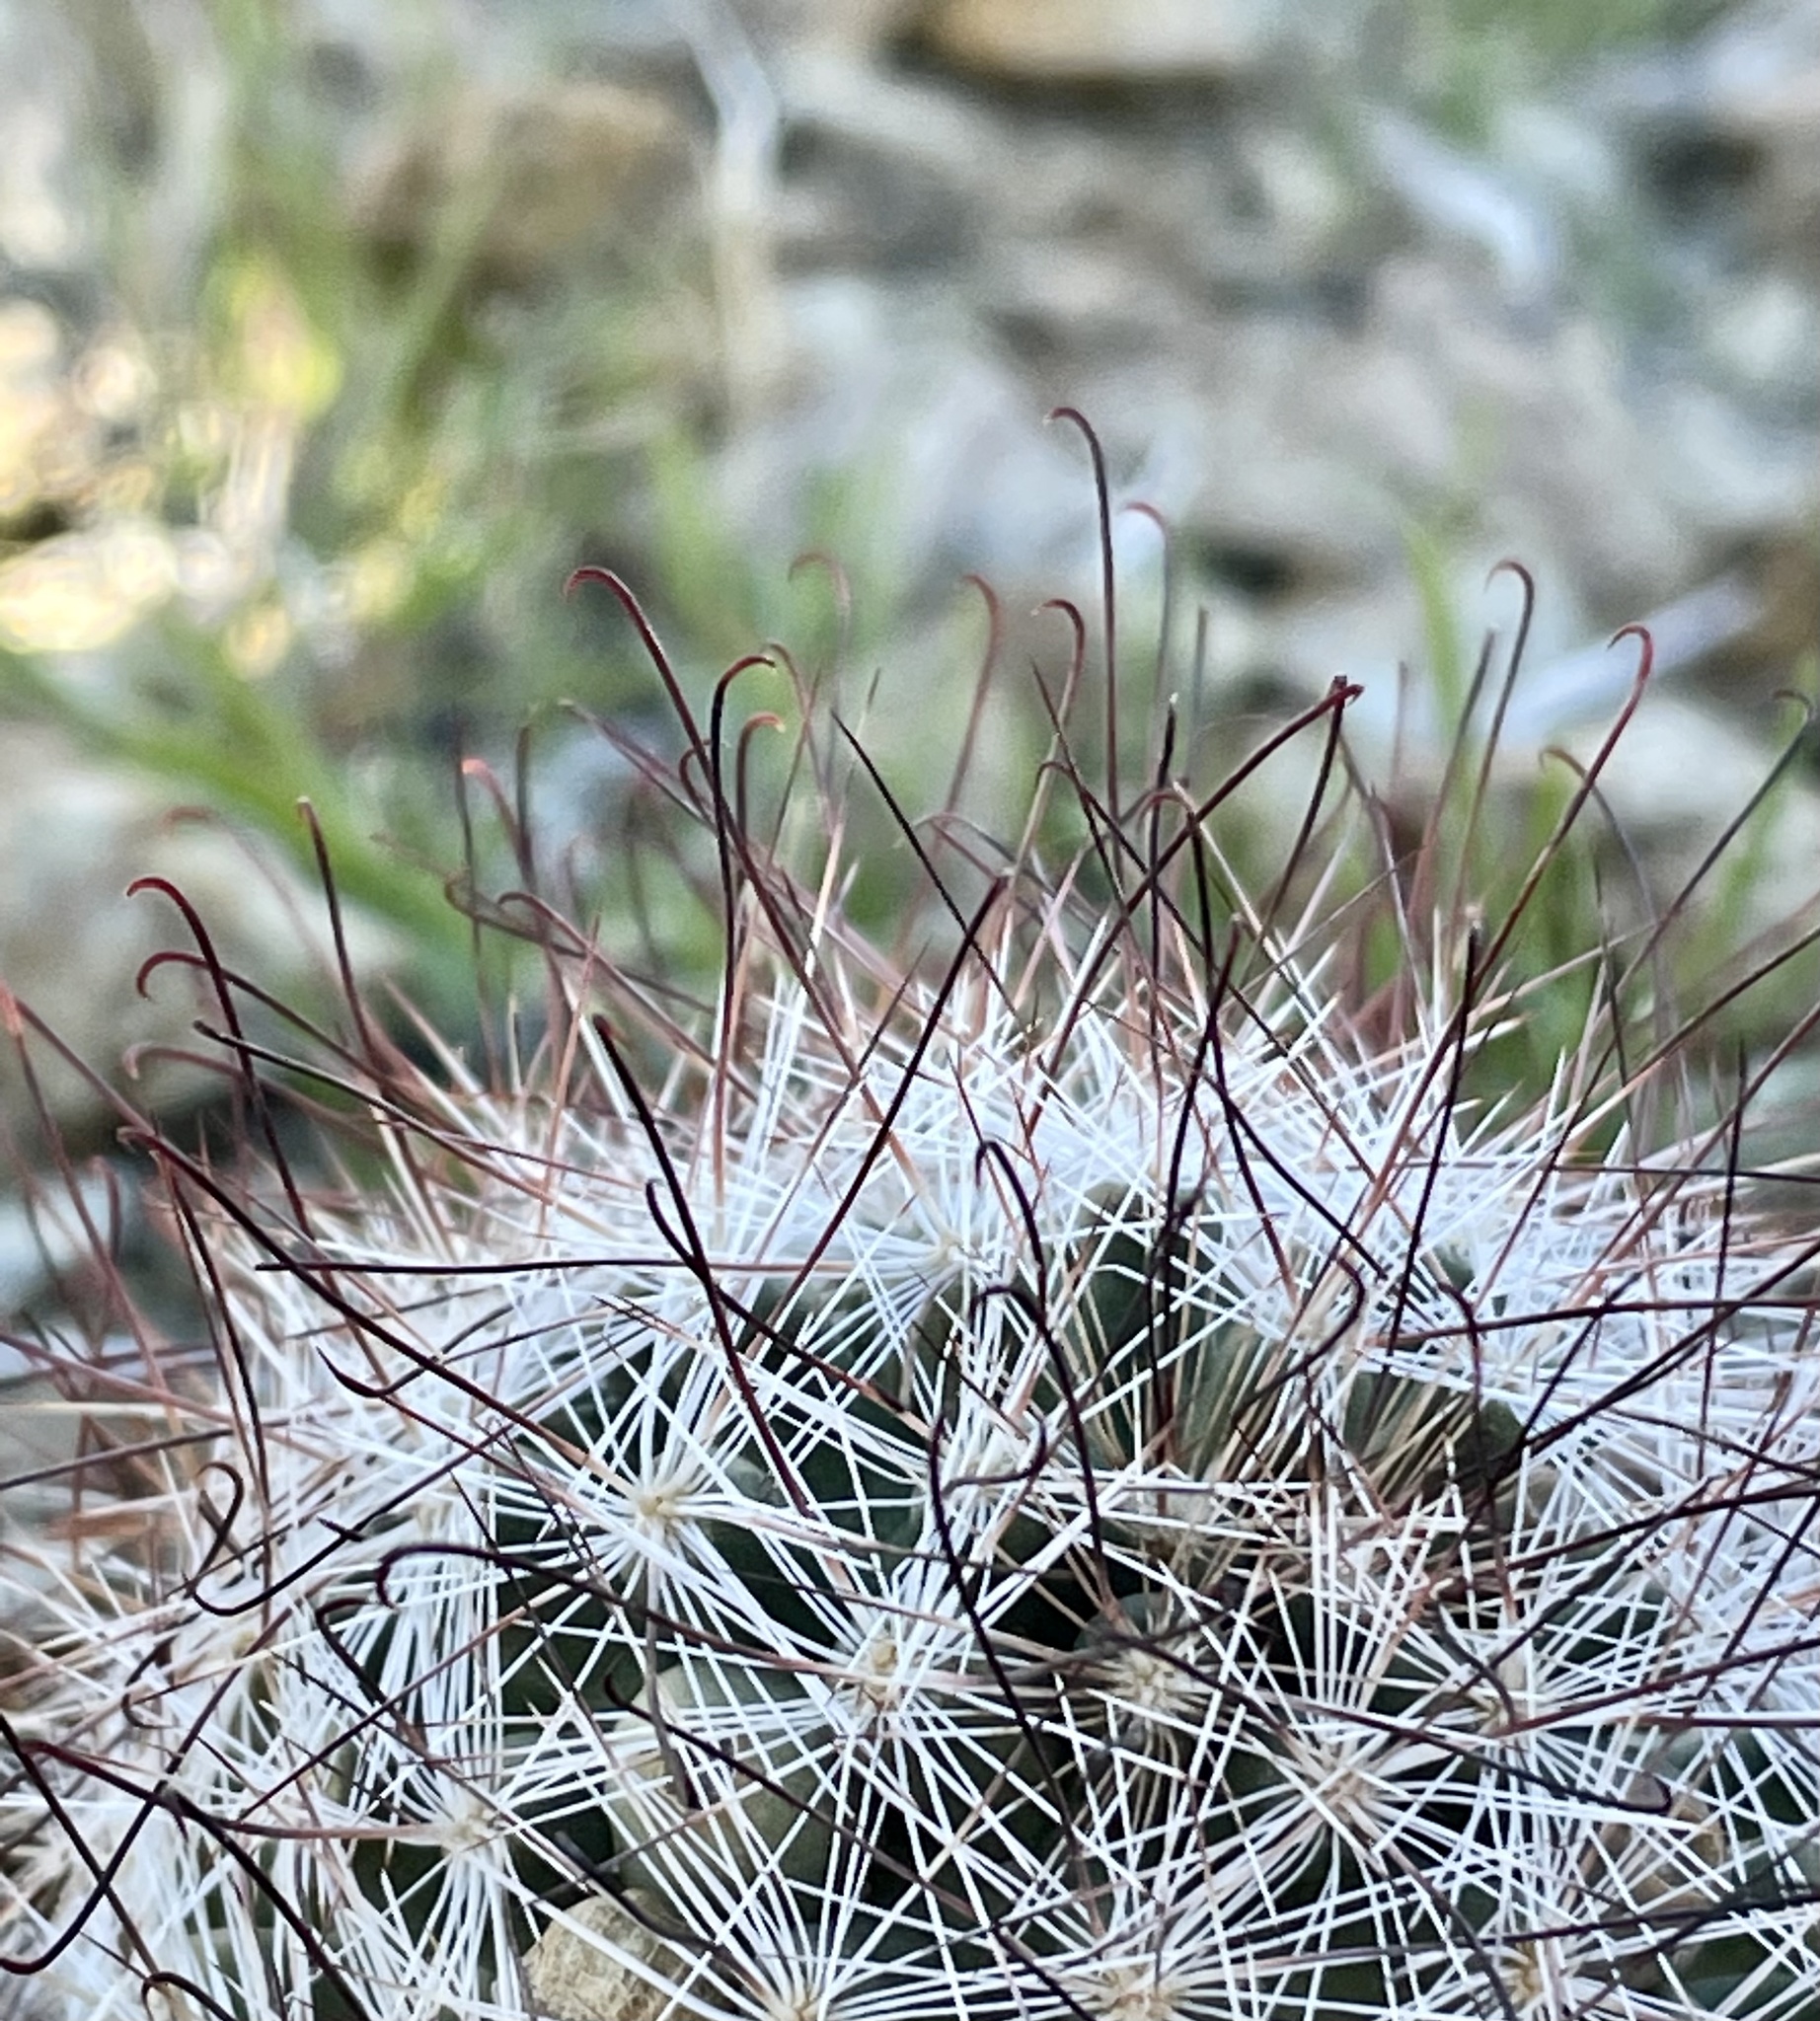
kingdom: Plantae
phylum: Tracheophyta
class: Magnoliopsida
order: Caryophyllales
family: Cactaceae
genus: Cochemiea
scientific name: Cochemiea tetrancistra
